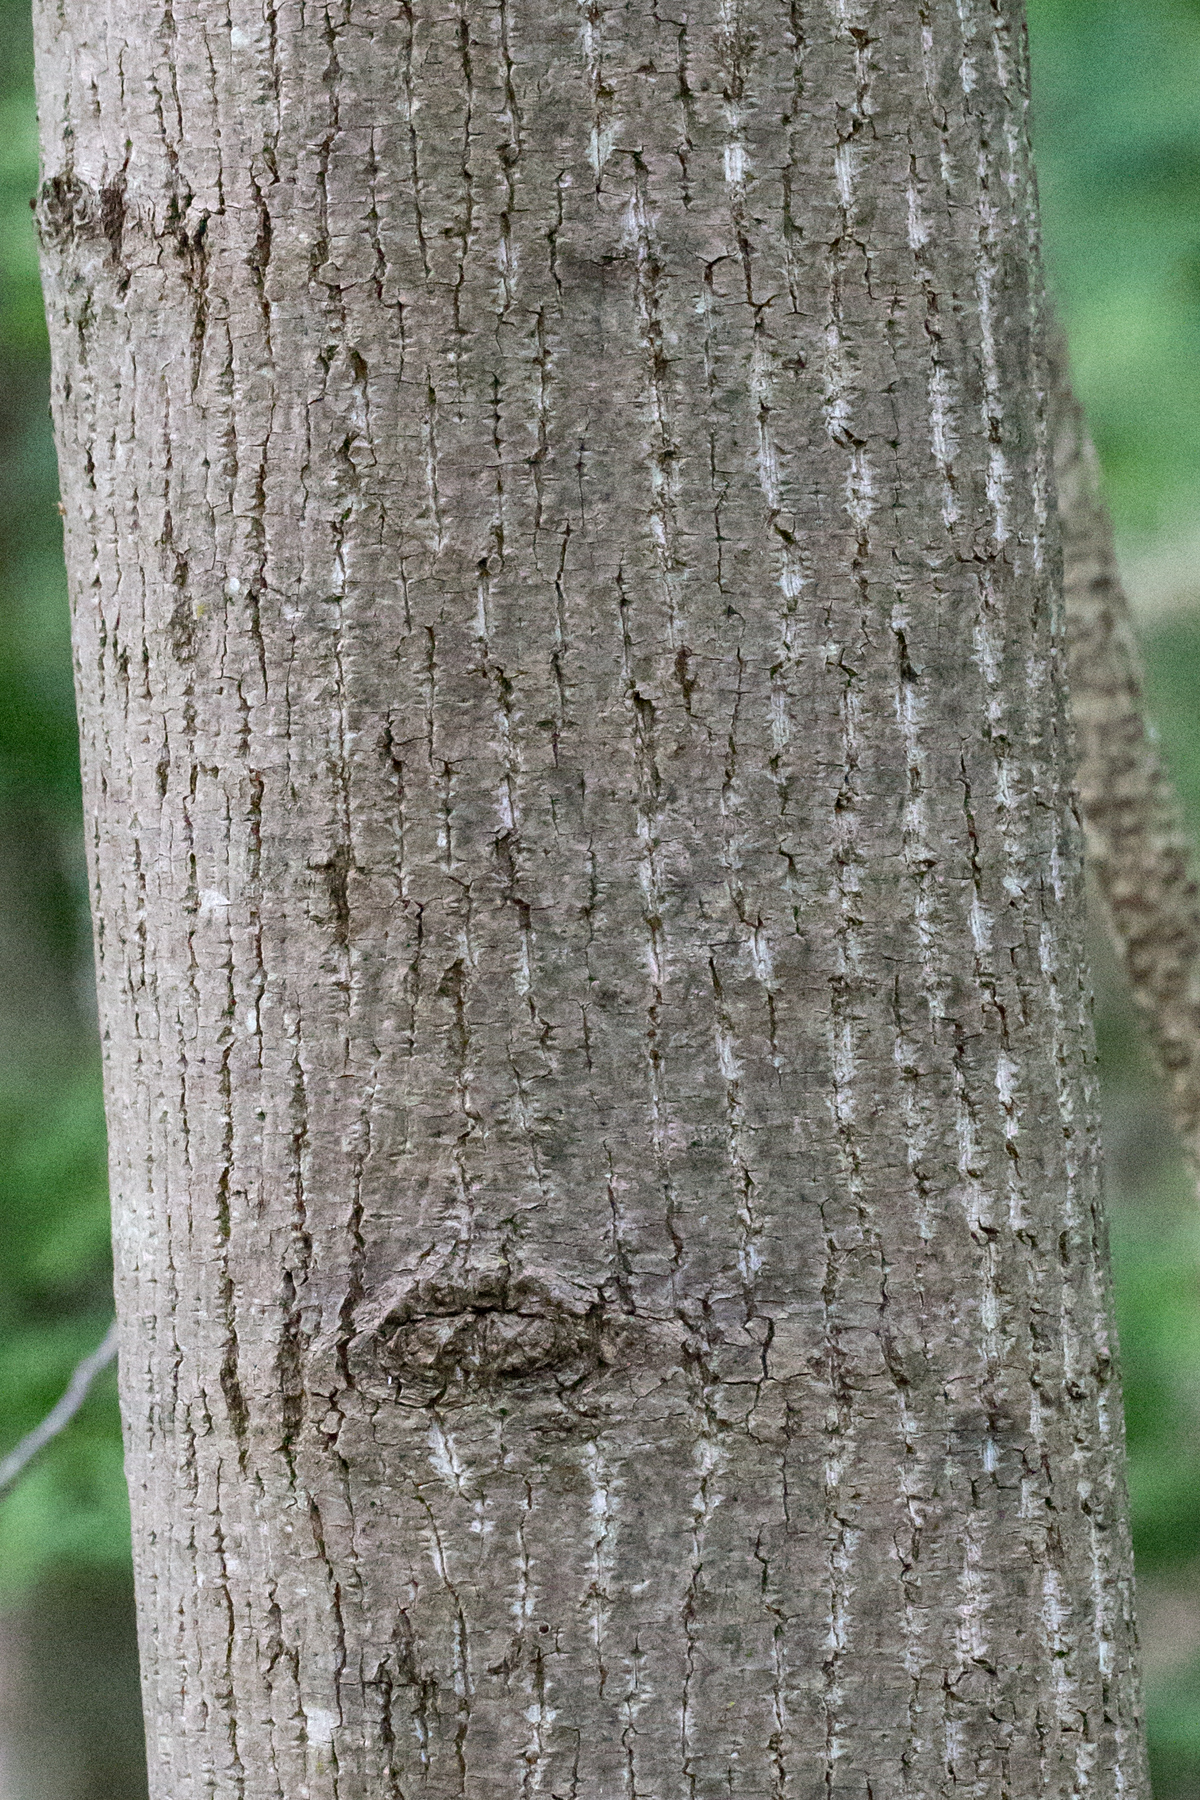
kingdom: Plantae
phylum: Tracheophyta
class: Magnoliopsida
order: Magnoliales
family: Magnoliaceae
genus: Liriodendron
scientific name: Liriodendron tulipifera
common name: Tulip tree
